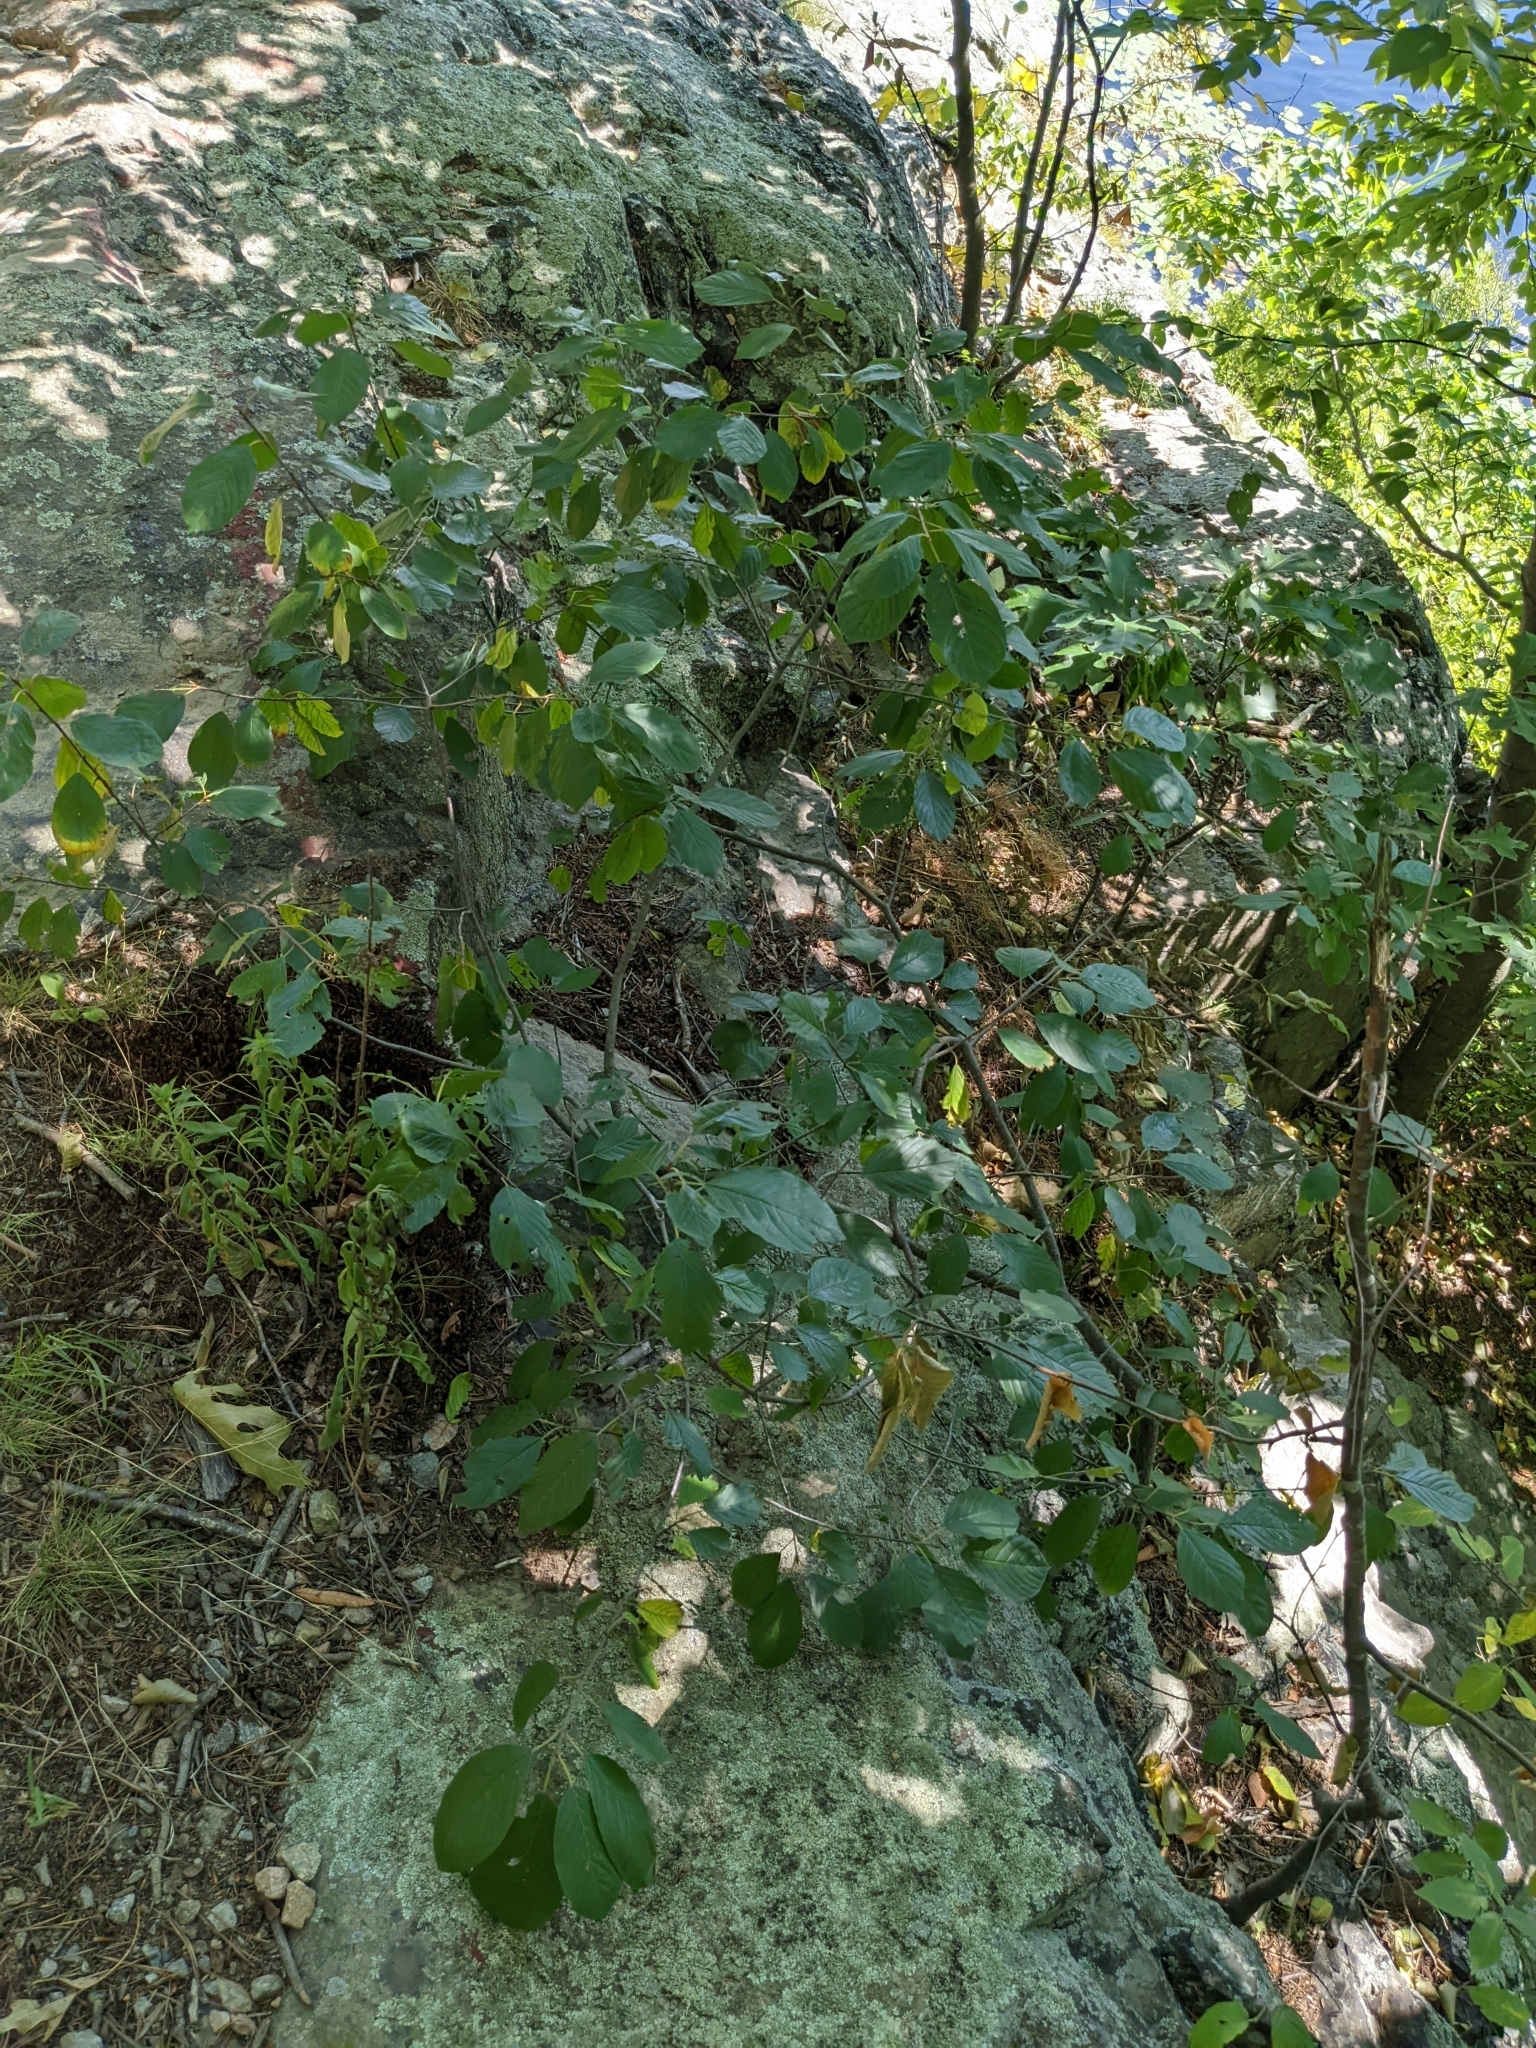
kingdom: Plantae
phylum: Tracheophyta
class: Magnoliopsida
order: Rosales
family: Rhamnaceae
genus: Frangula
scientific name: Frangula alnus
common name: Alder buckthorn
